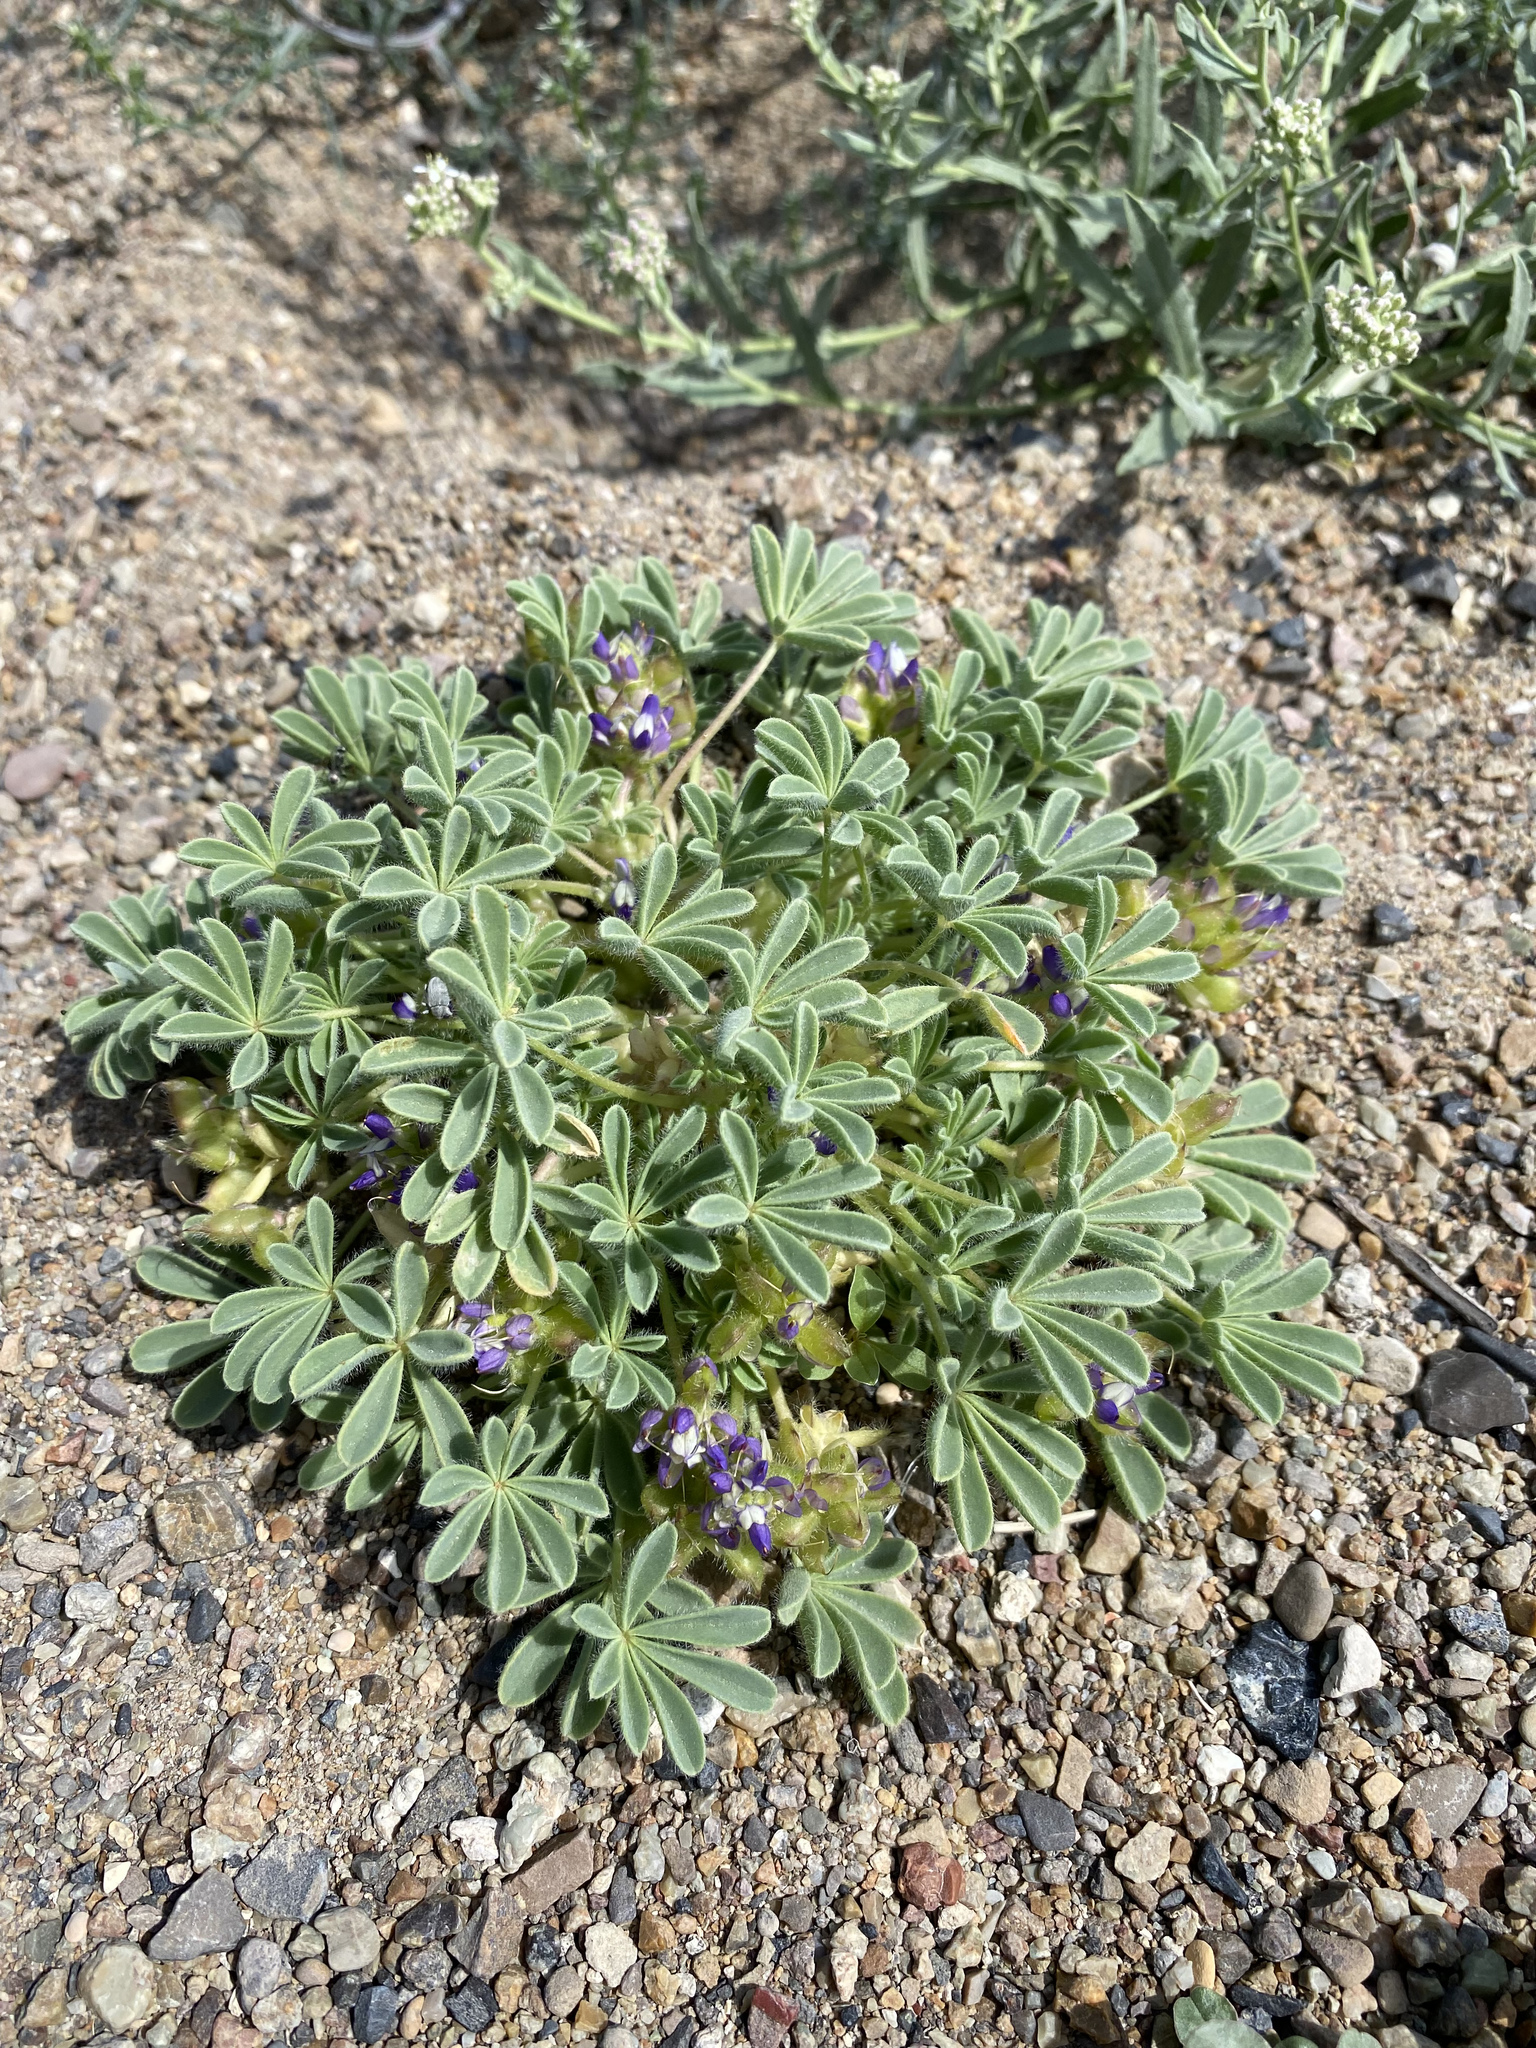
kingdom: Plantae
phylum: Tracheophyta
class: Magnoliopsida
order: Fabales
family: Fabaceae
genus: Lupinus
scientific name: Lupinus brevicaulis
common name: Sand lupine
